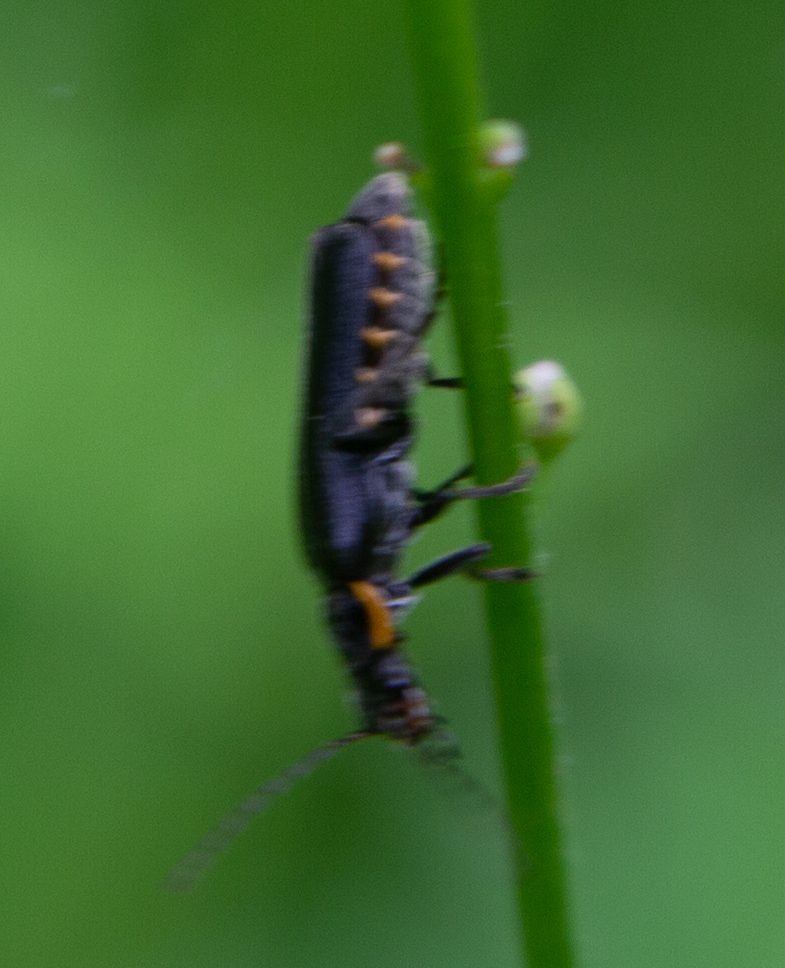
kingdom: Animalia
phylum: Arthropoda
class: Insecta
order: Coleoptera
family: Cantharidae
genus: Cantharis
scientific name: Cantharis obscura
